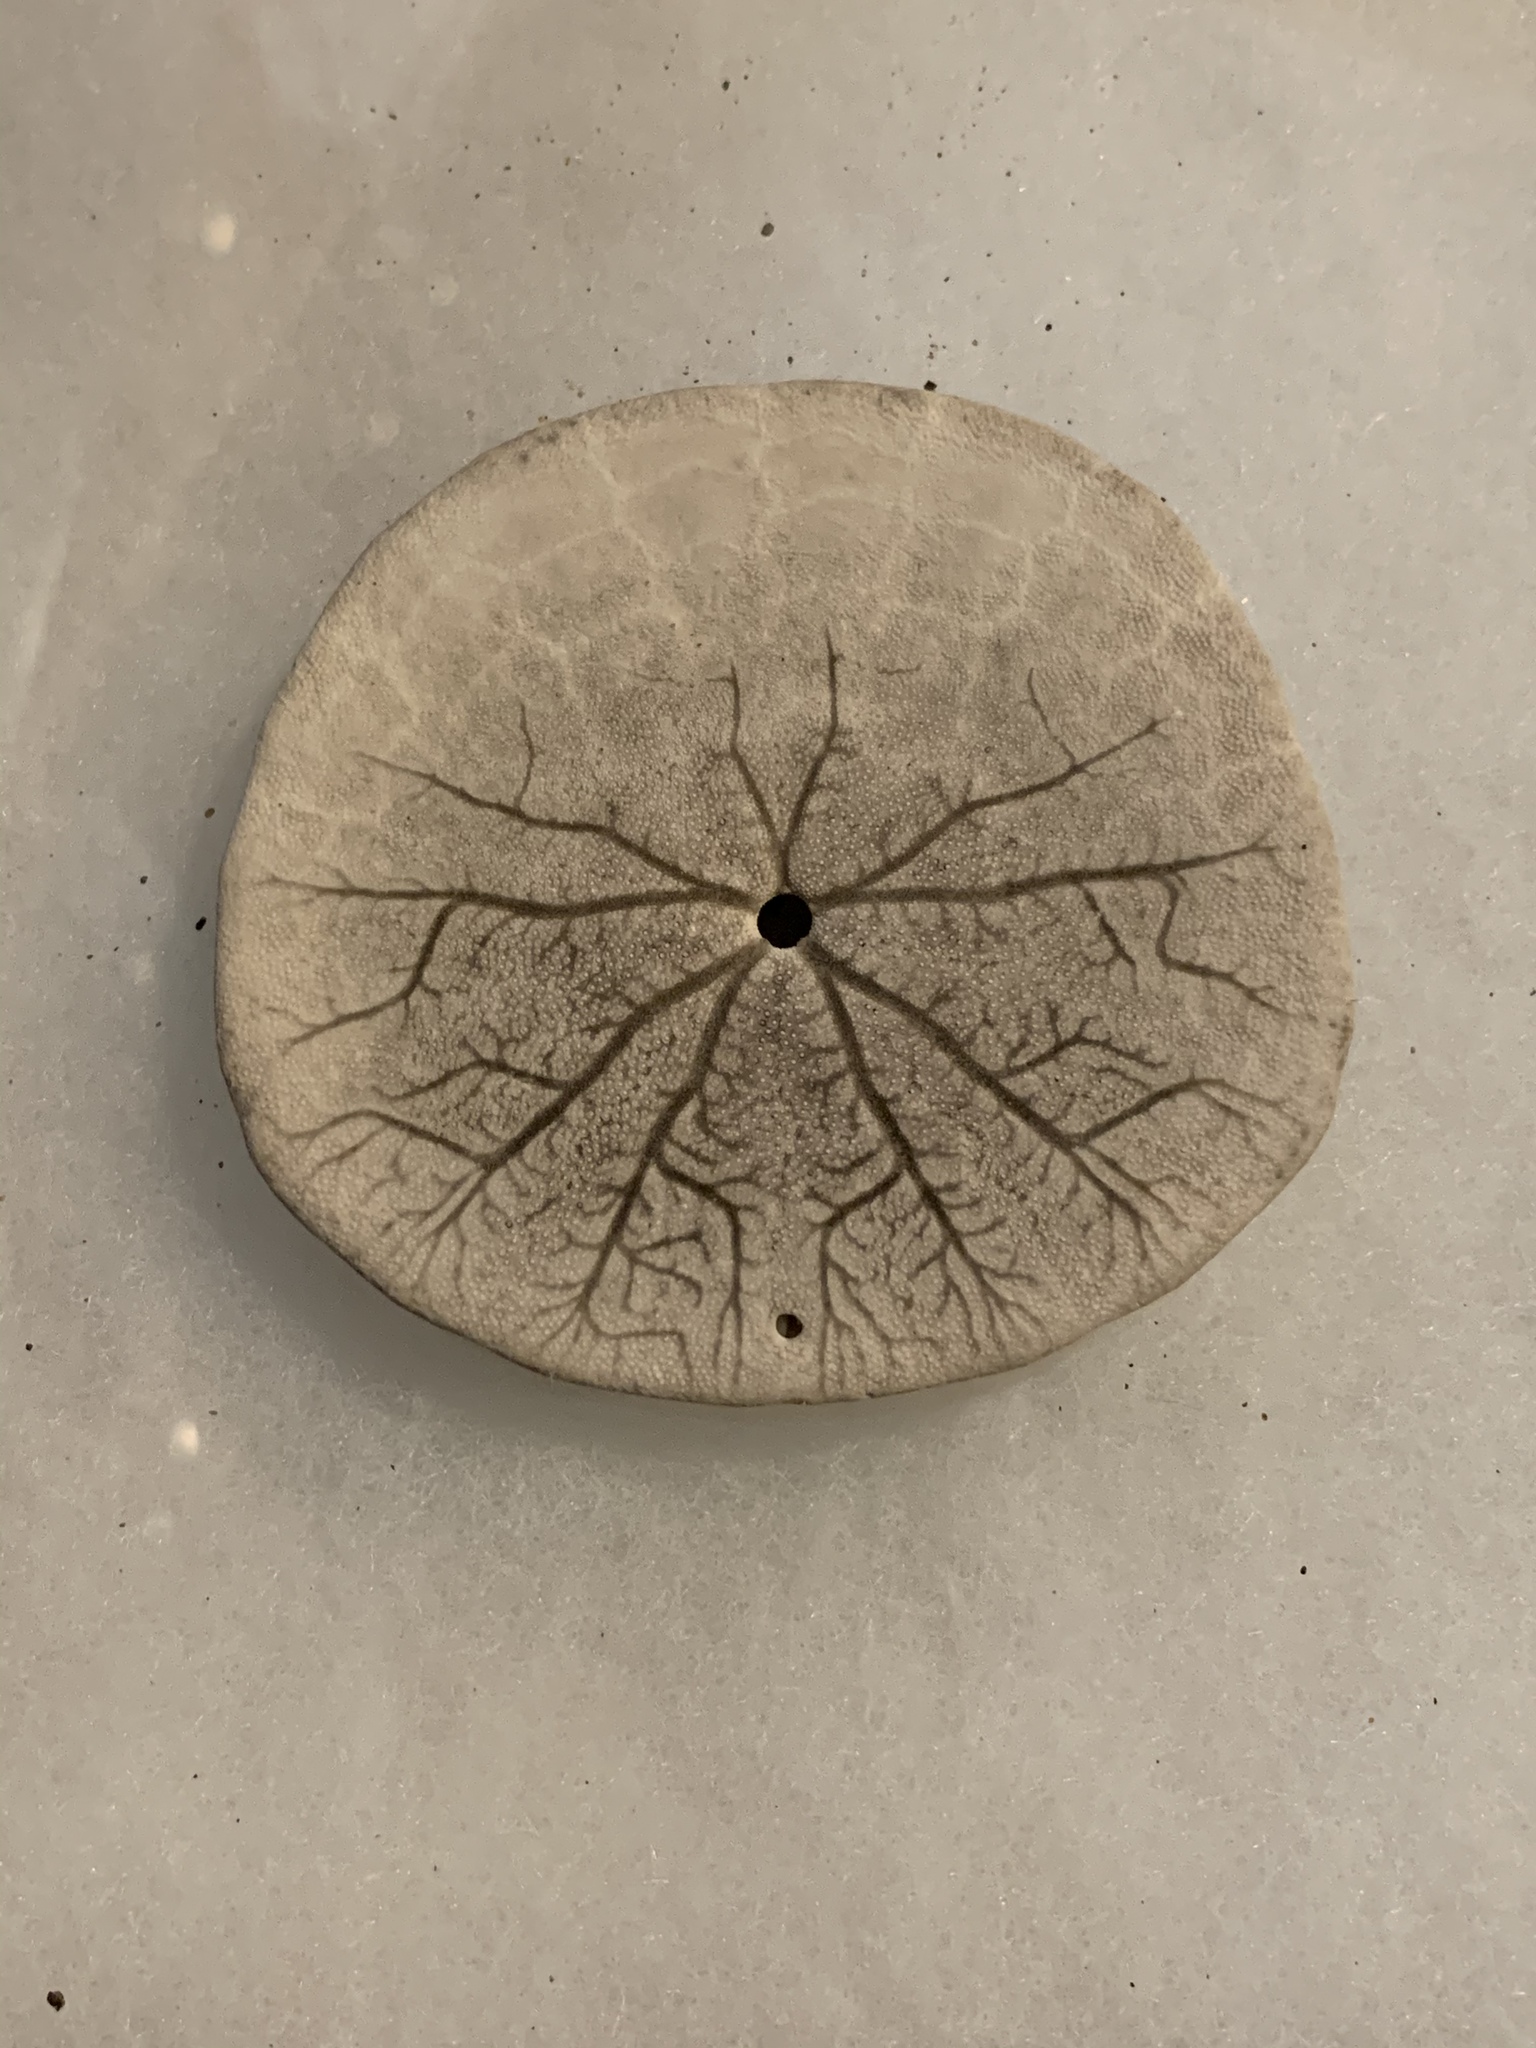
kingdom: Animalia
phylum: Echinodermata
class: Echinoidea
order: Echinolampadacea
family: Dendrasteridae
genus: Dendraster
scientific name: Dendraster excentricus
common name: Eccentric sand dollar sea urchin
